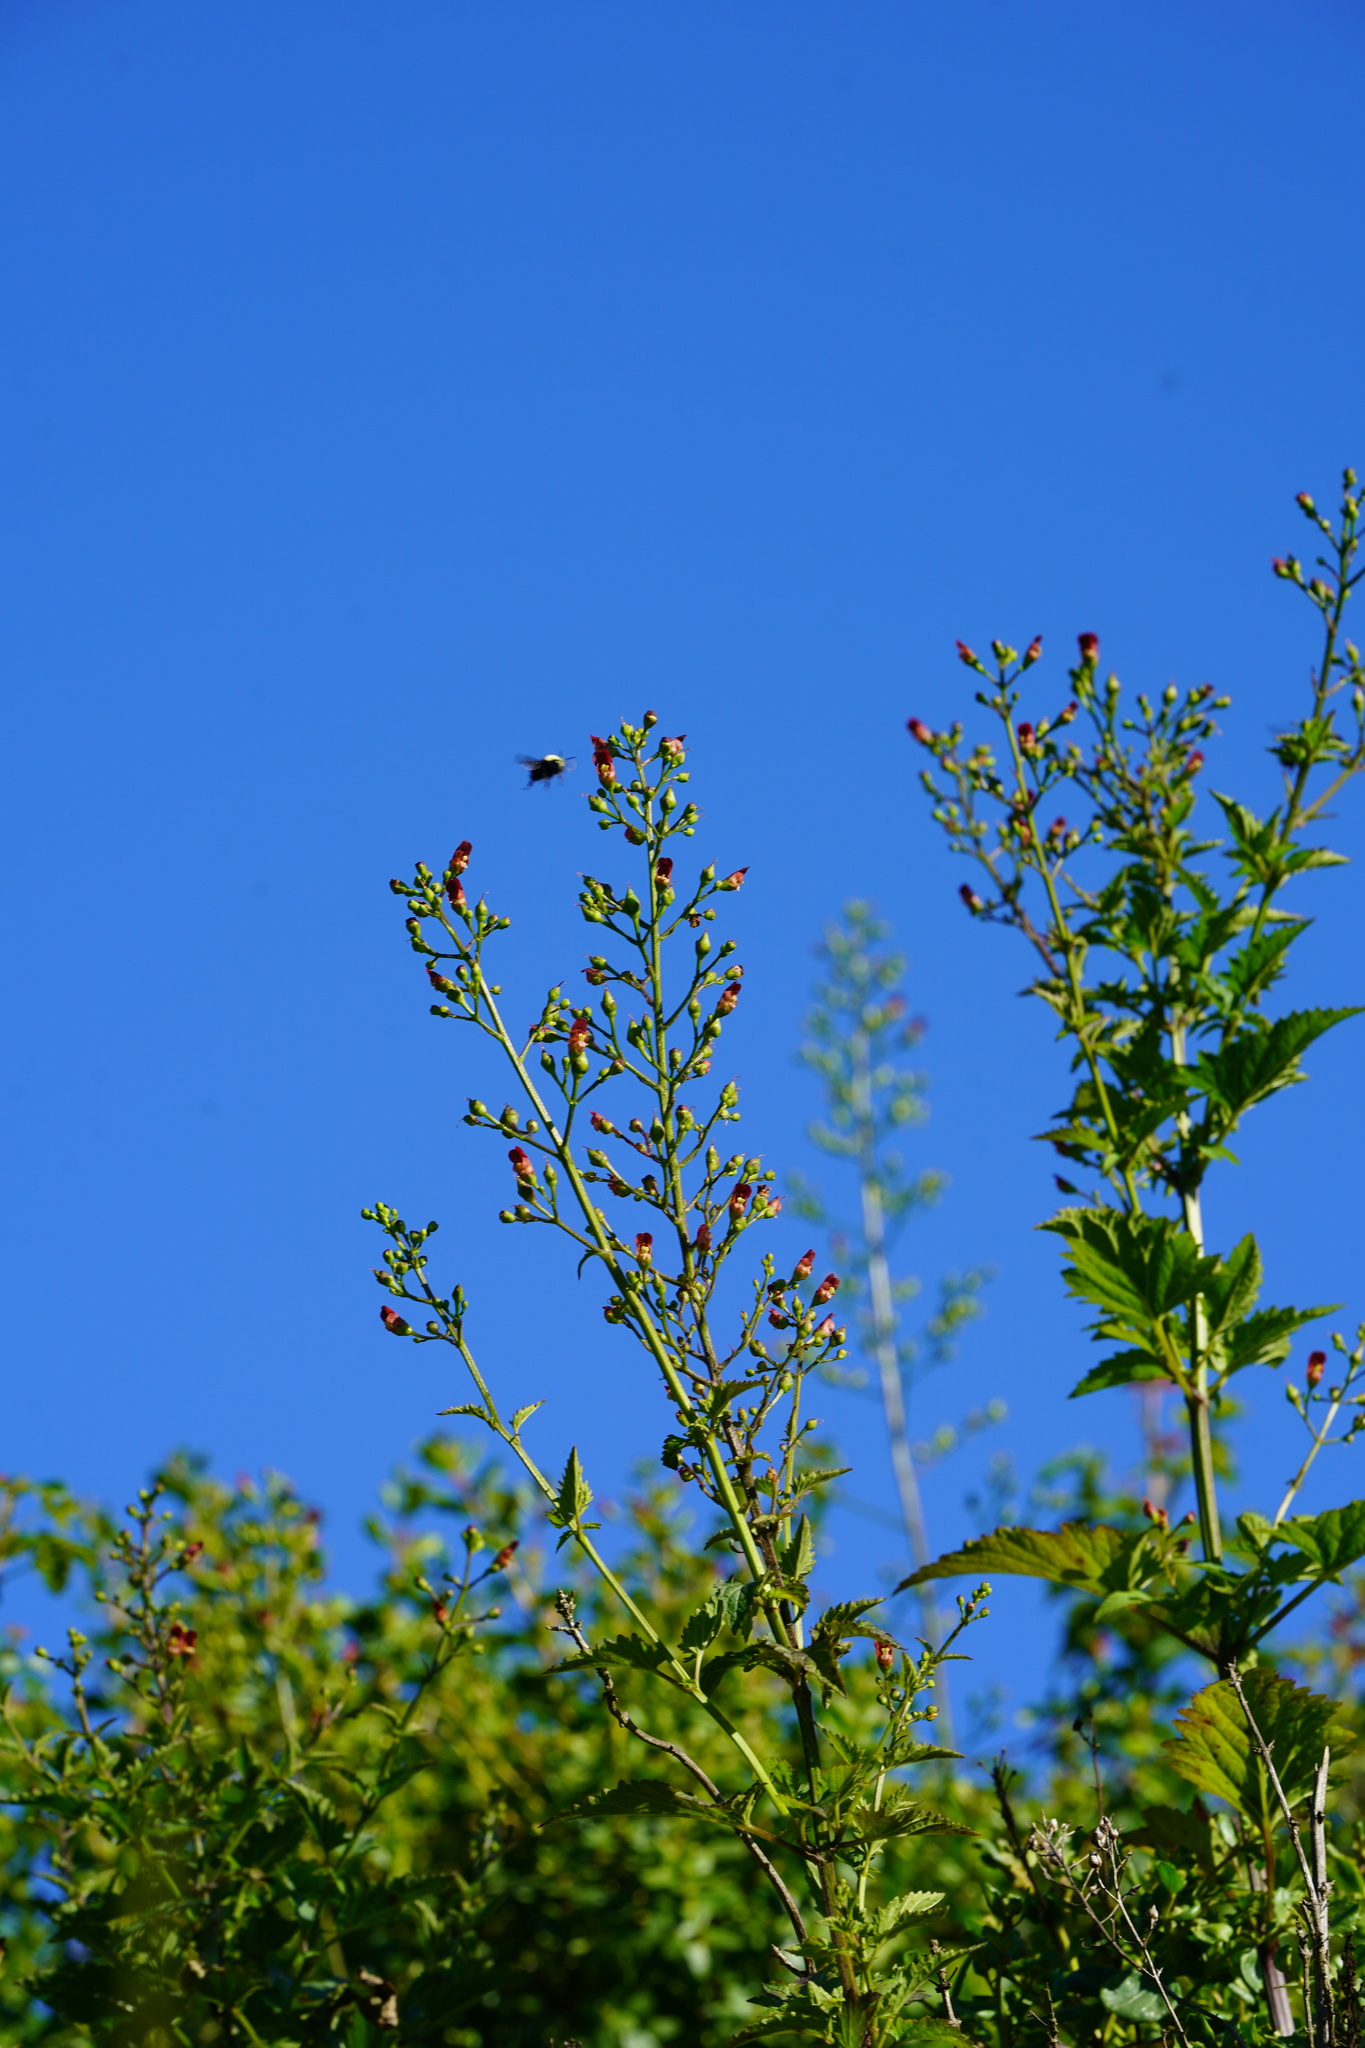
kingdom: Plantae
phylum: Tracheophyta
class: Magnoliopsida
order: Lamiales
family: Scrophulariaceae
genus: Scrophularia
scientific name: Scrophularia californica
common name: California figwort
